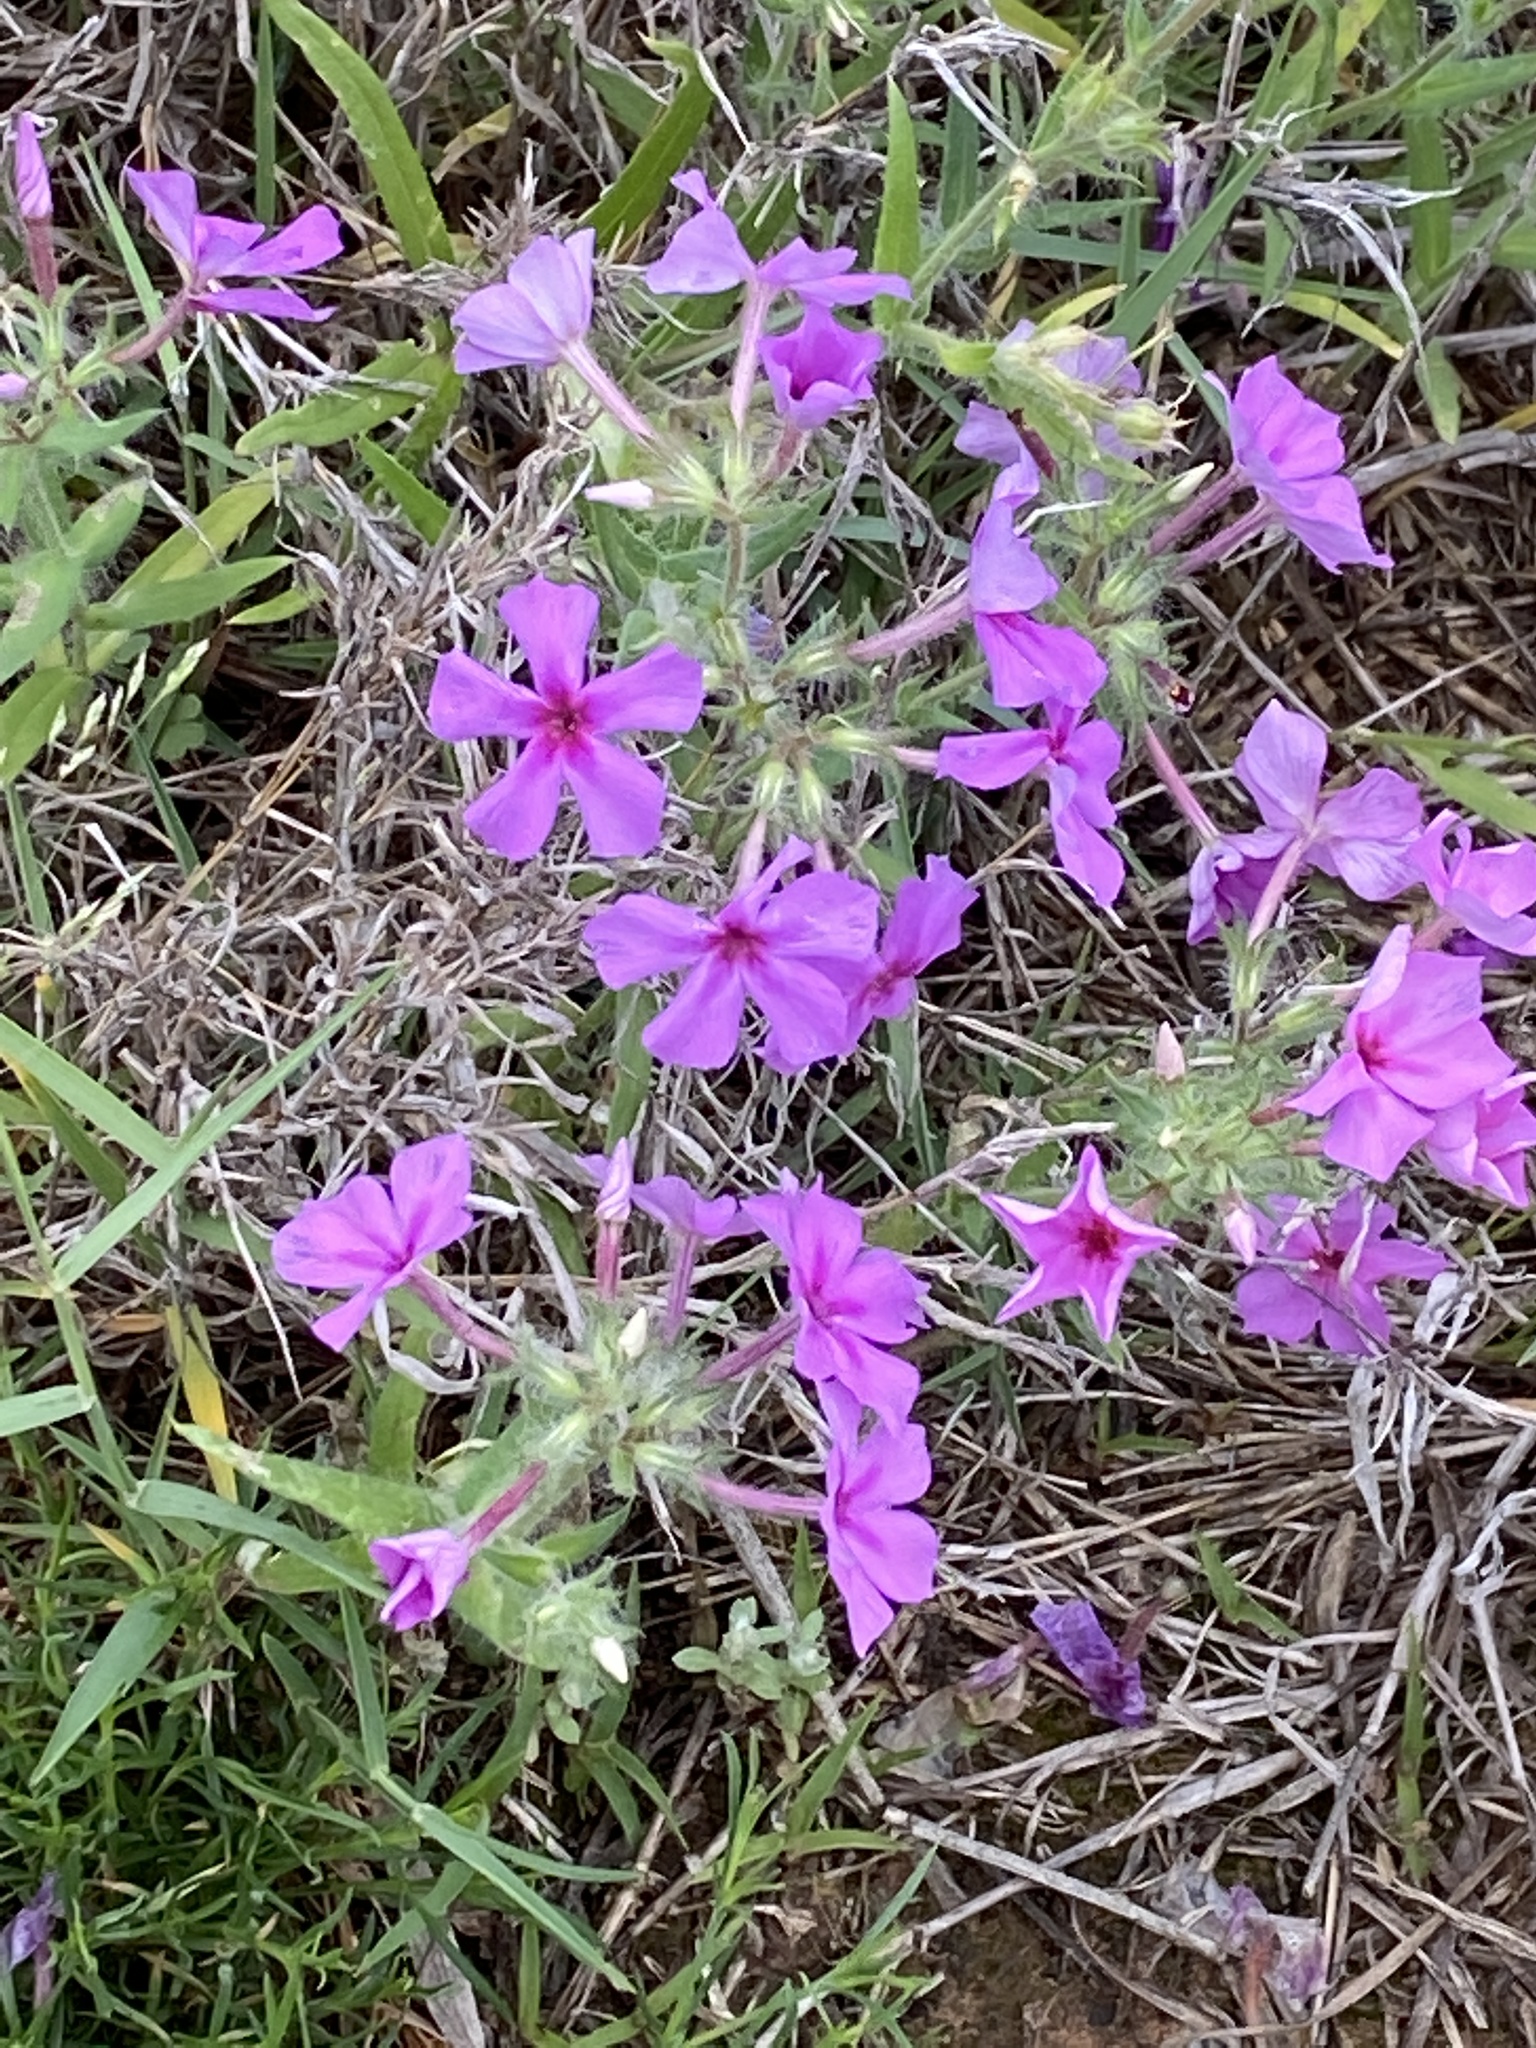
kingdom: Plantae
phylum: Tracheophyta
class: Magnoliopsida
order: Ericales
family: Polemoniaceae
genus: Phlox
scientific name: Phlox cuspidata
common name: Pointed phlox
